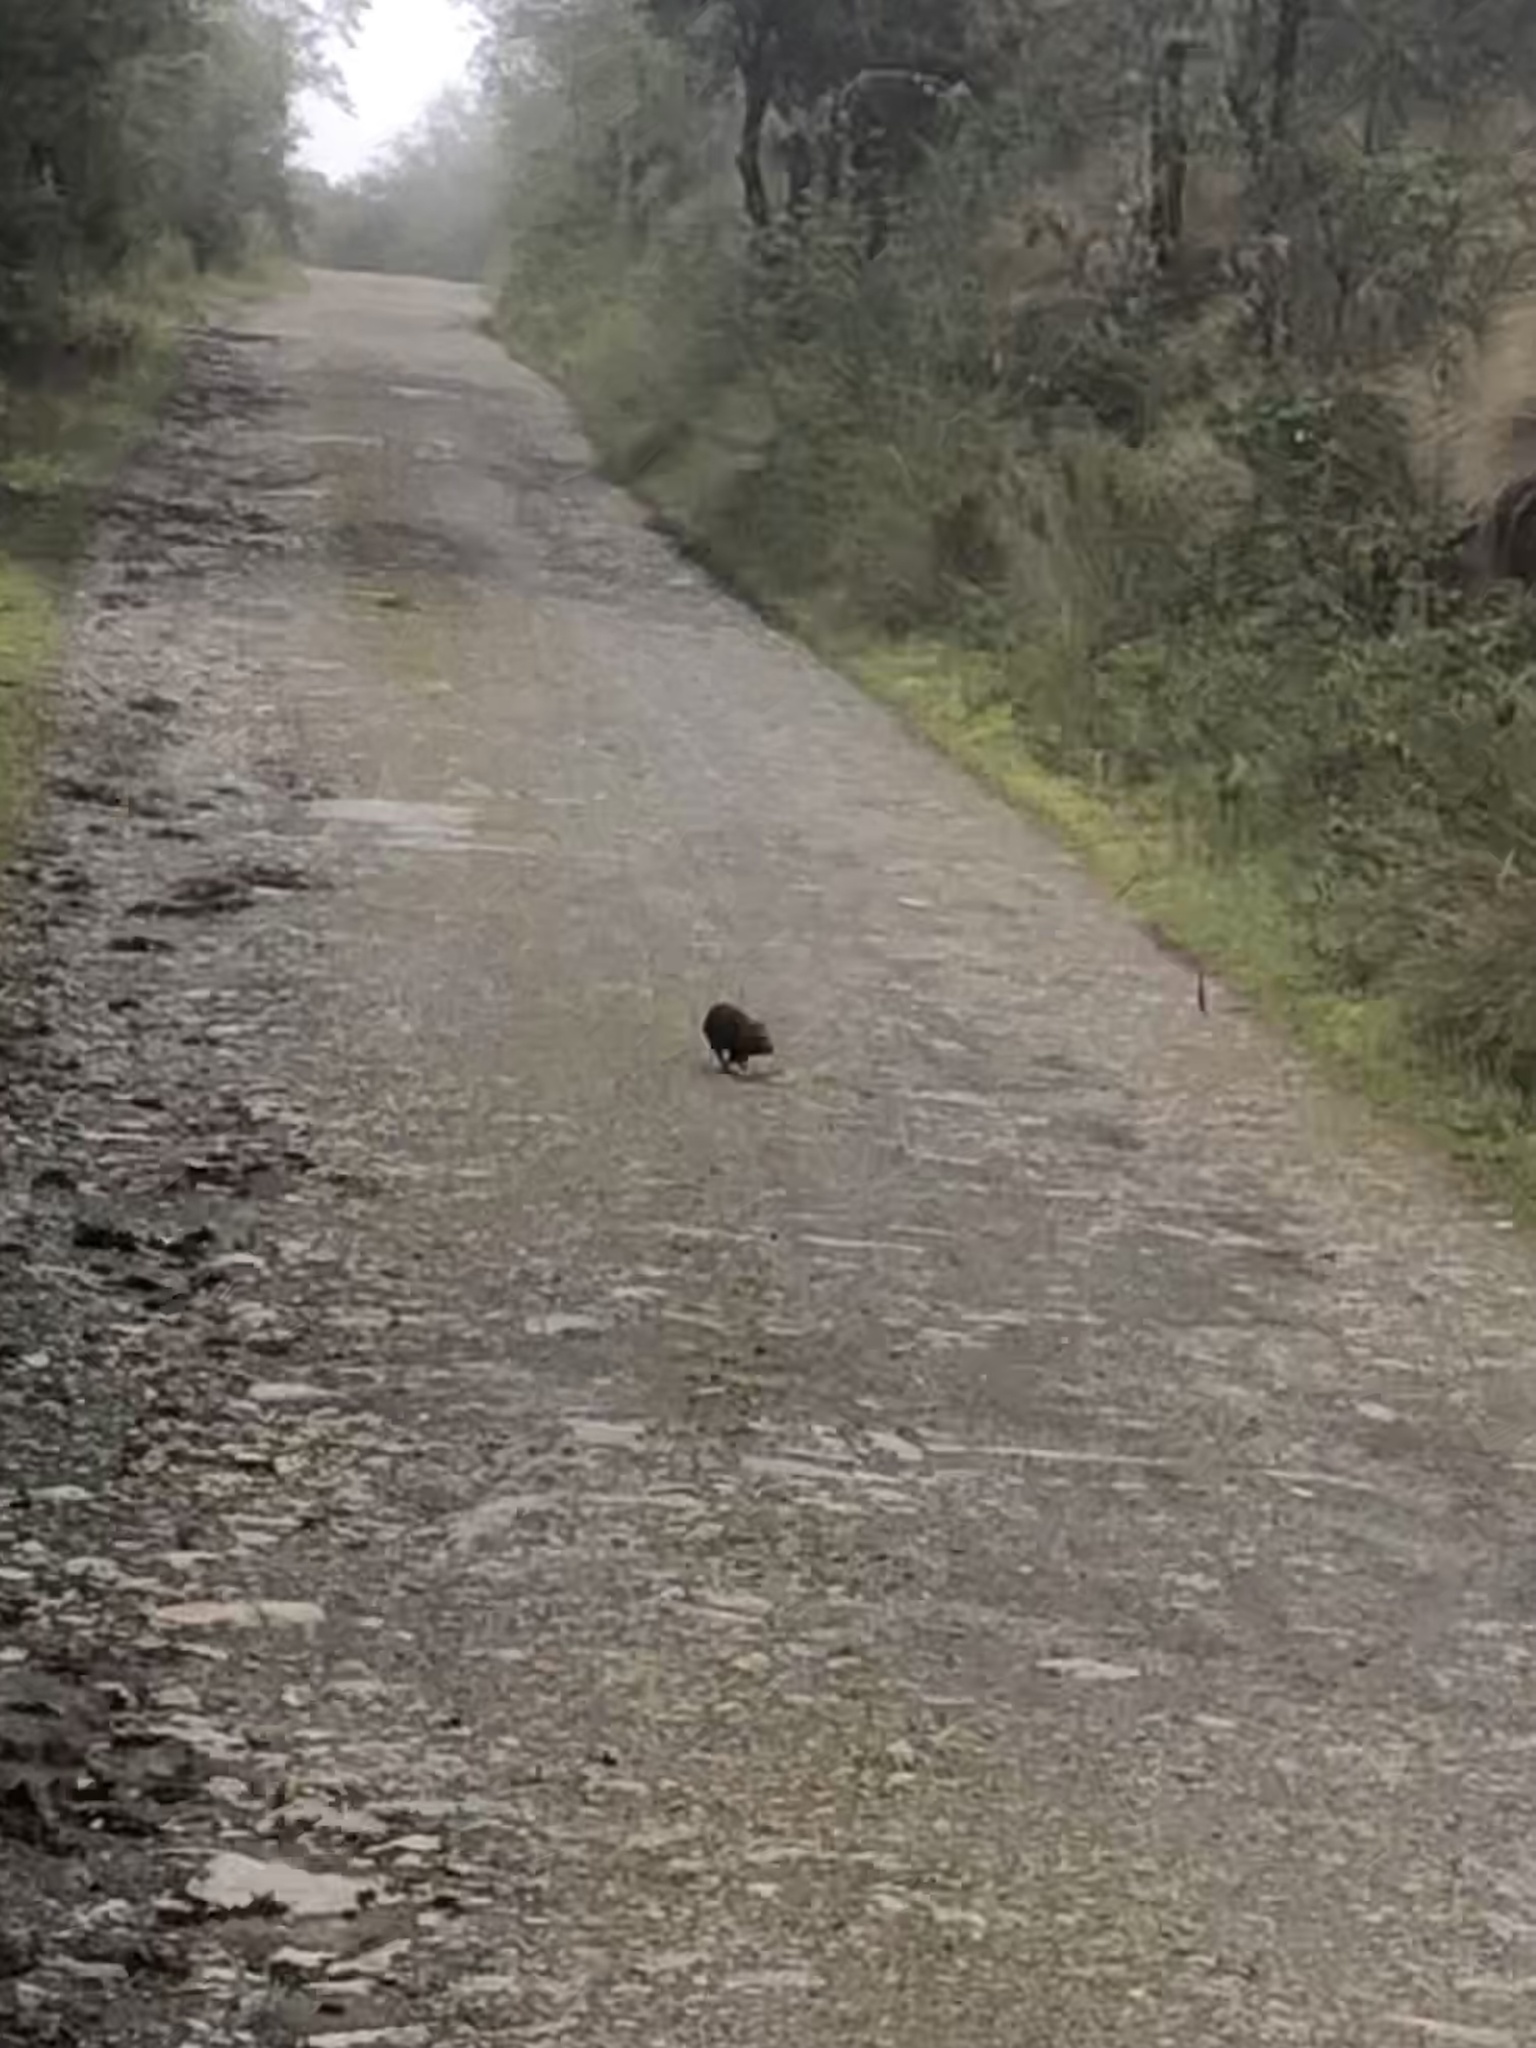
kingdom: Animalia
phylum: Chordata
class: Mammalia
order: Rodentia
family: Caviidae
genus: Cavia
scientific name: Cavia tschudii
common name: Montane guinea pig
